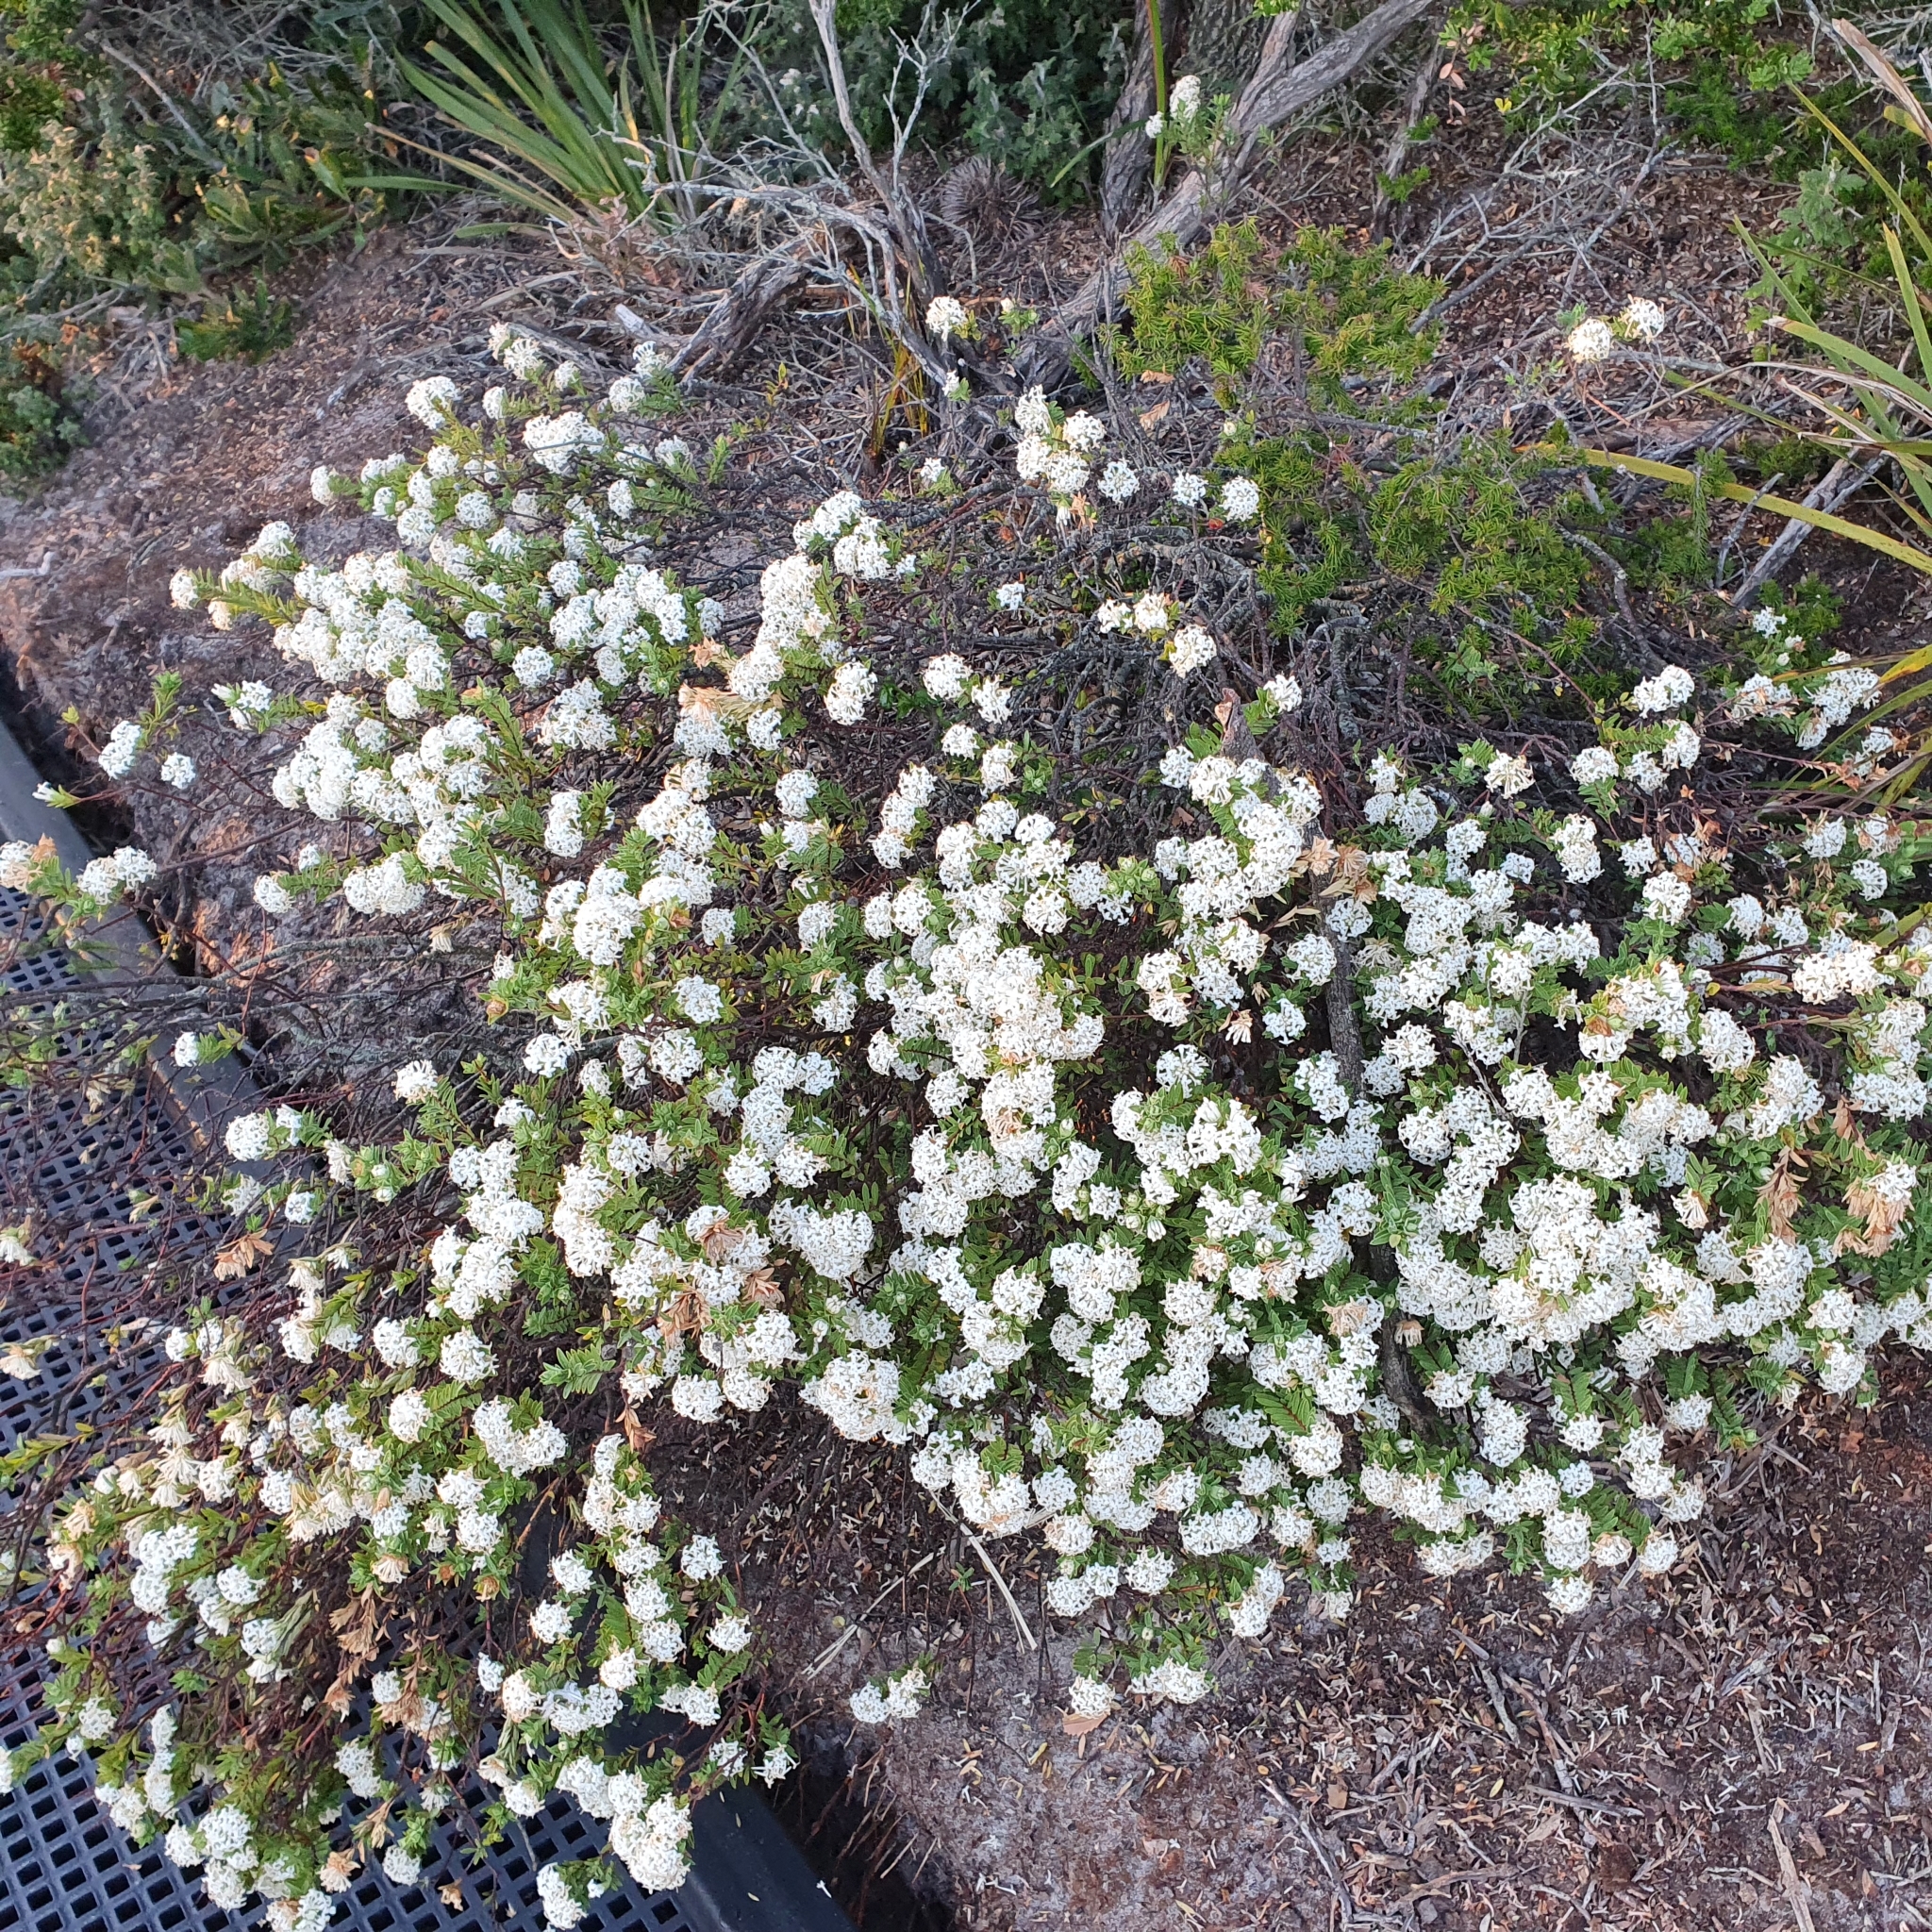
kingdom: Plantae
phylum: Tracheophyta
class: Magnoliopsida
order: Malvales
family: Thymelaeaceae
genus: Pimelea
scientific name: Pimelea linifolia
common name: Queen-of-the-bush
